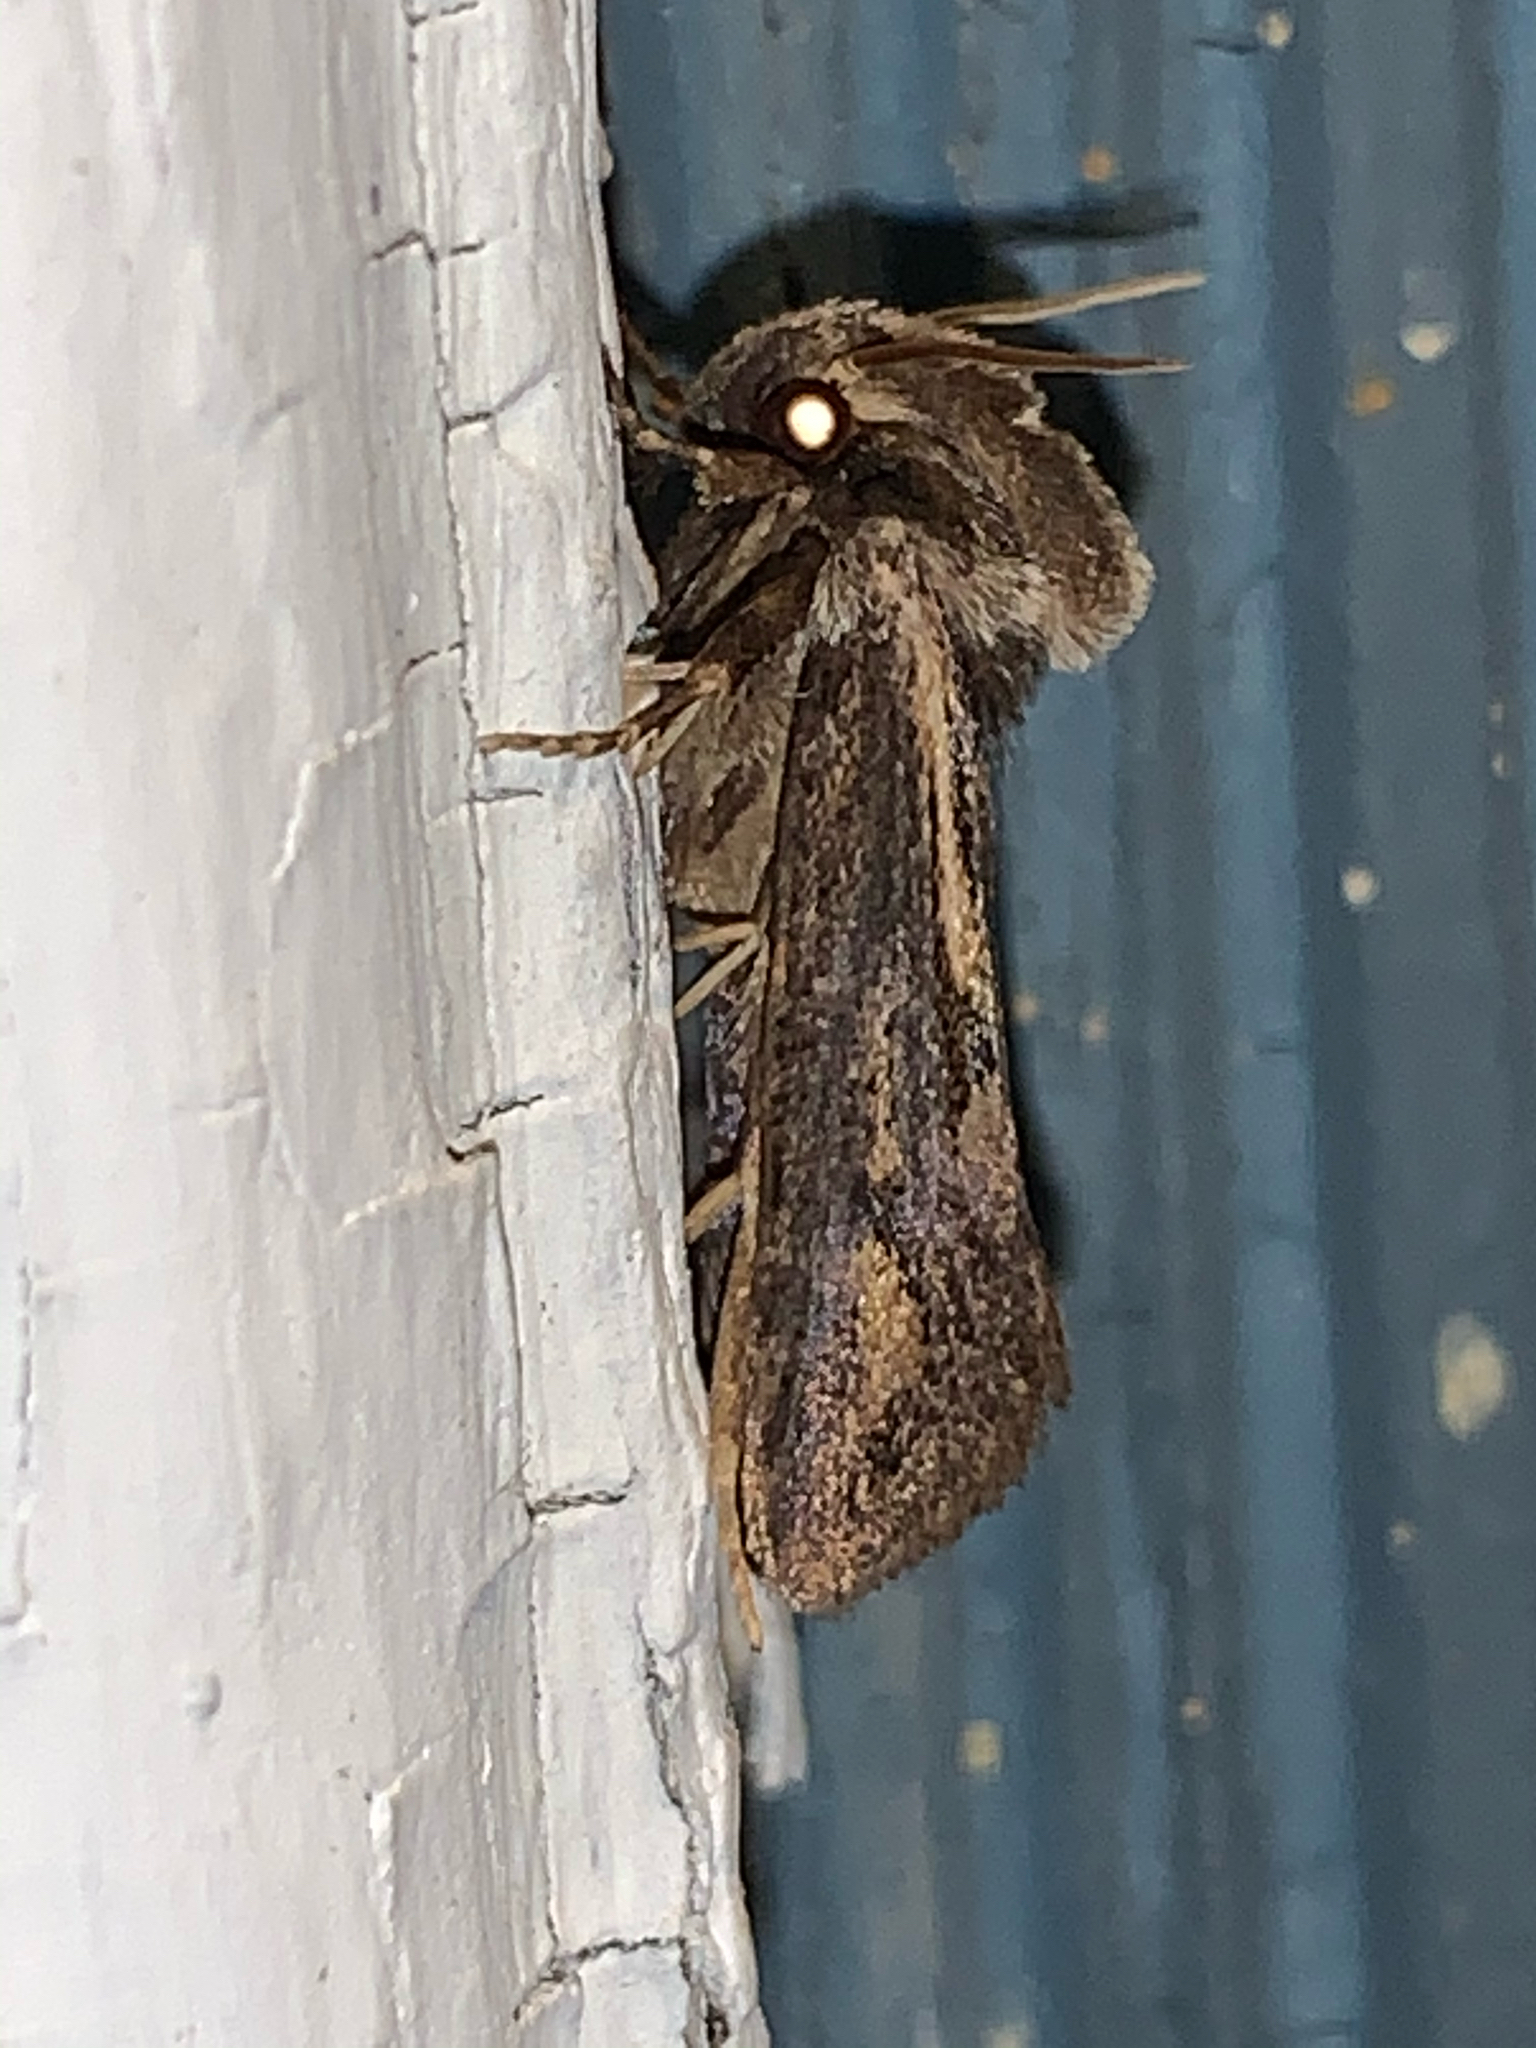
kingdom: Animalia
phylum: Arthropoda
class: Insecta
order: Lepidoptera
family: Tineidae
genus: Acrolophus
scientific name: Acrolophus popeanella
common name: Clemens' grass tubeworm moth
